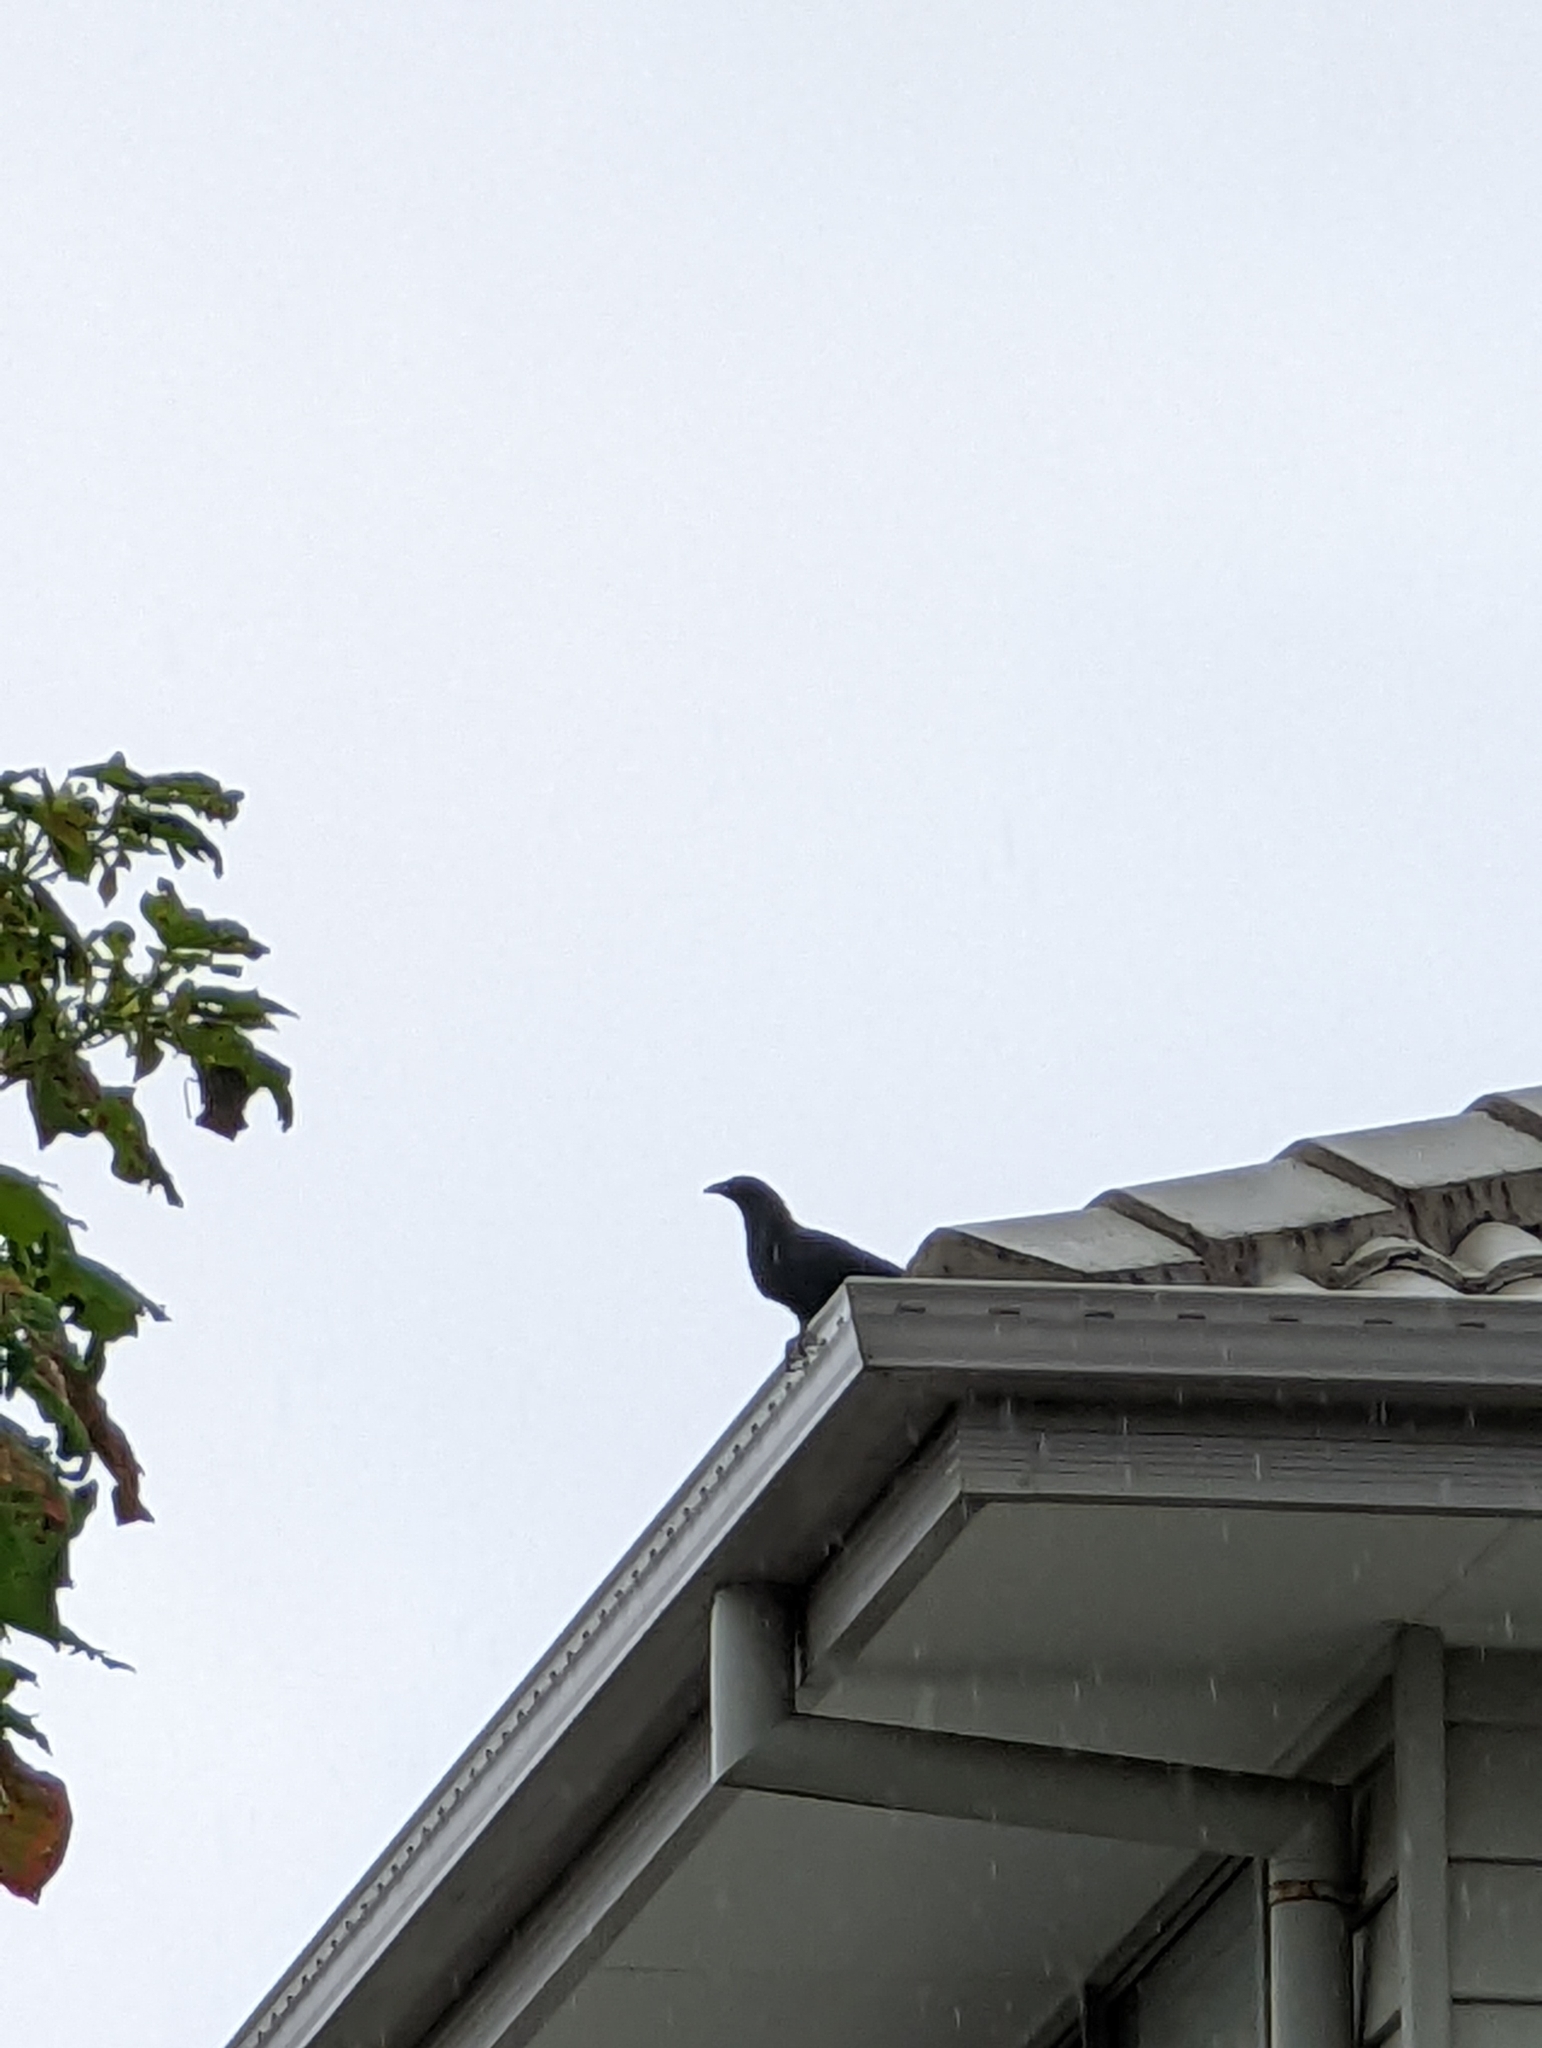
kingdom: Animalia
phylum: Chordata
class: Aves
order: Cuculiformes
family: Cuculidae
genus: Eudynamys
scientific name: Eudynamys orientalis
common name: Pacific koel
